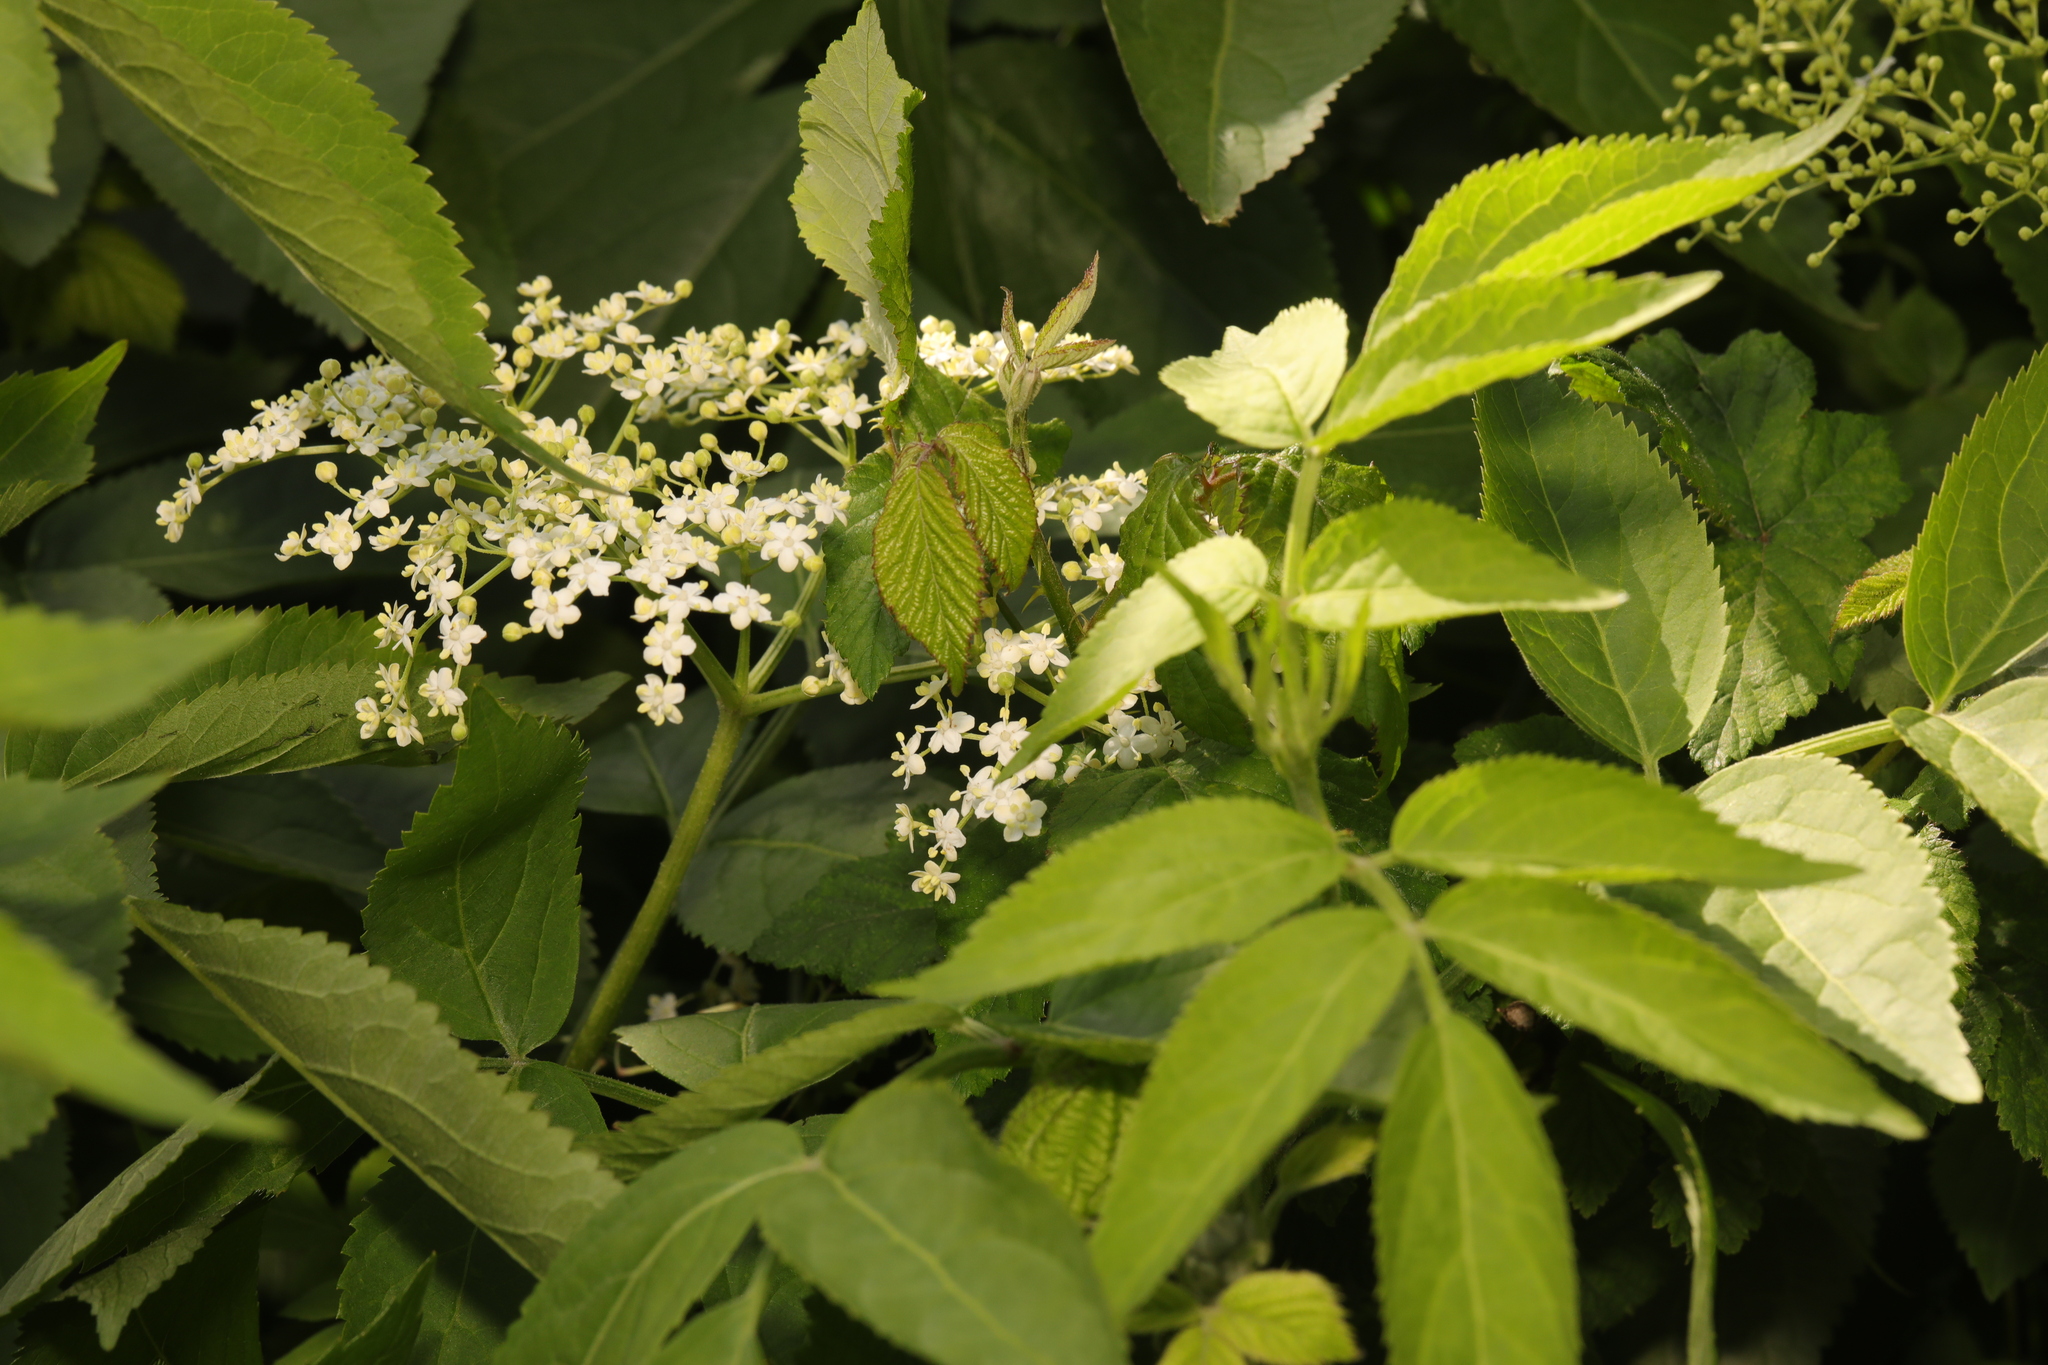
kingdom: Plantae
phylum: Tracheophyta
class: Magnoliopsida
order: Dipsacales
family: Viburnaceae
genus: Sambucus
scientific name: Sambucus nigra
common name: Elder
